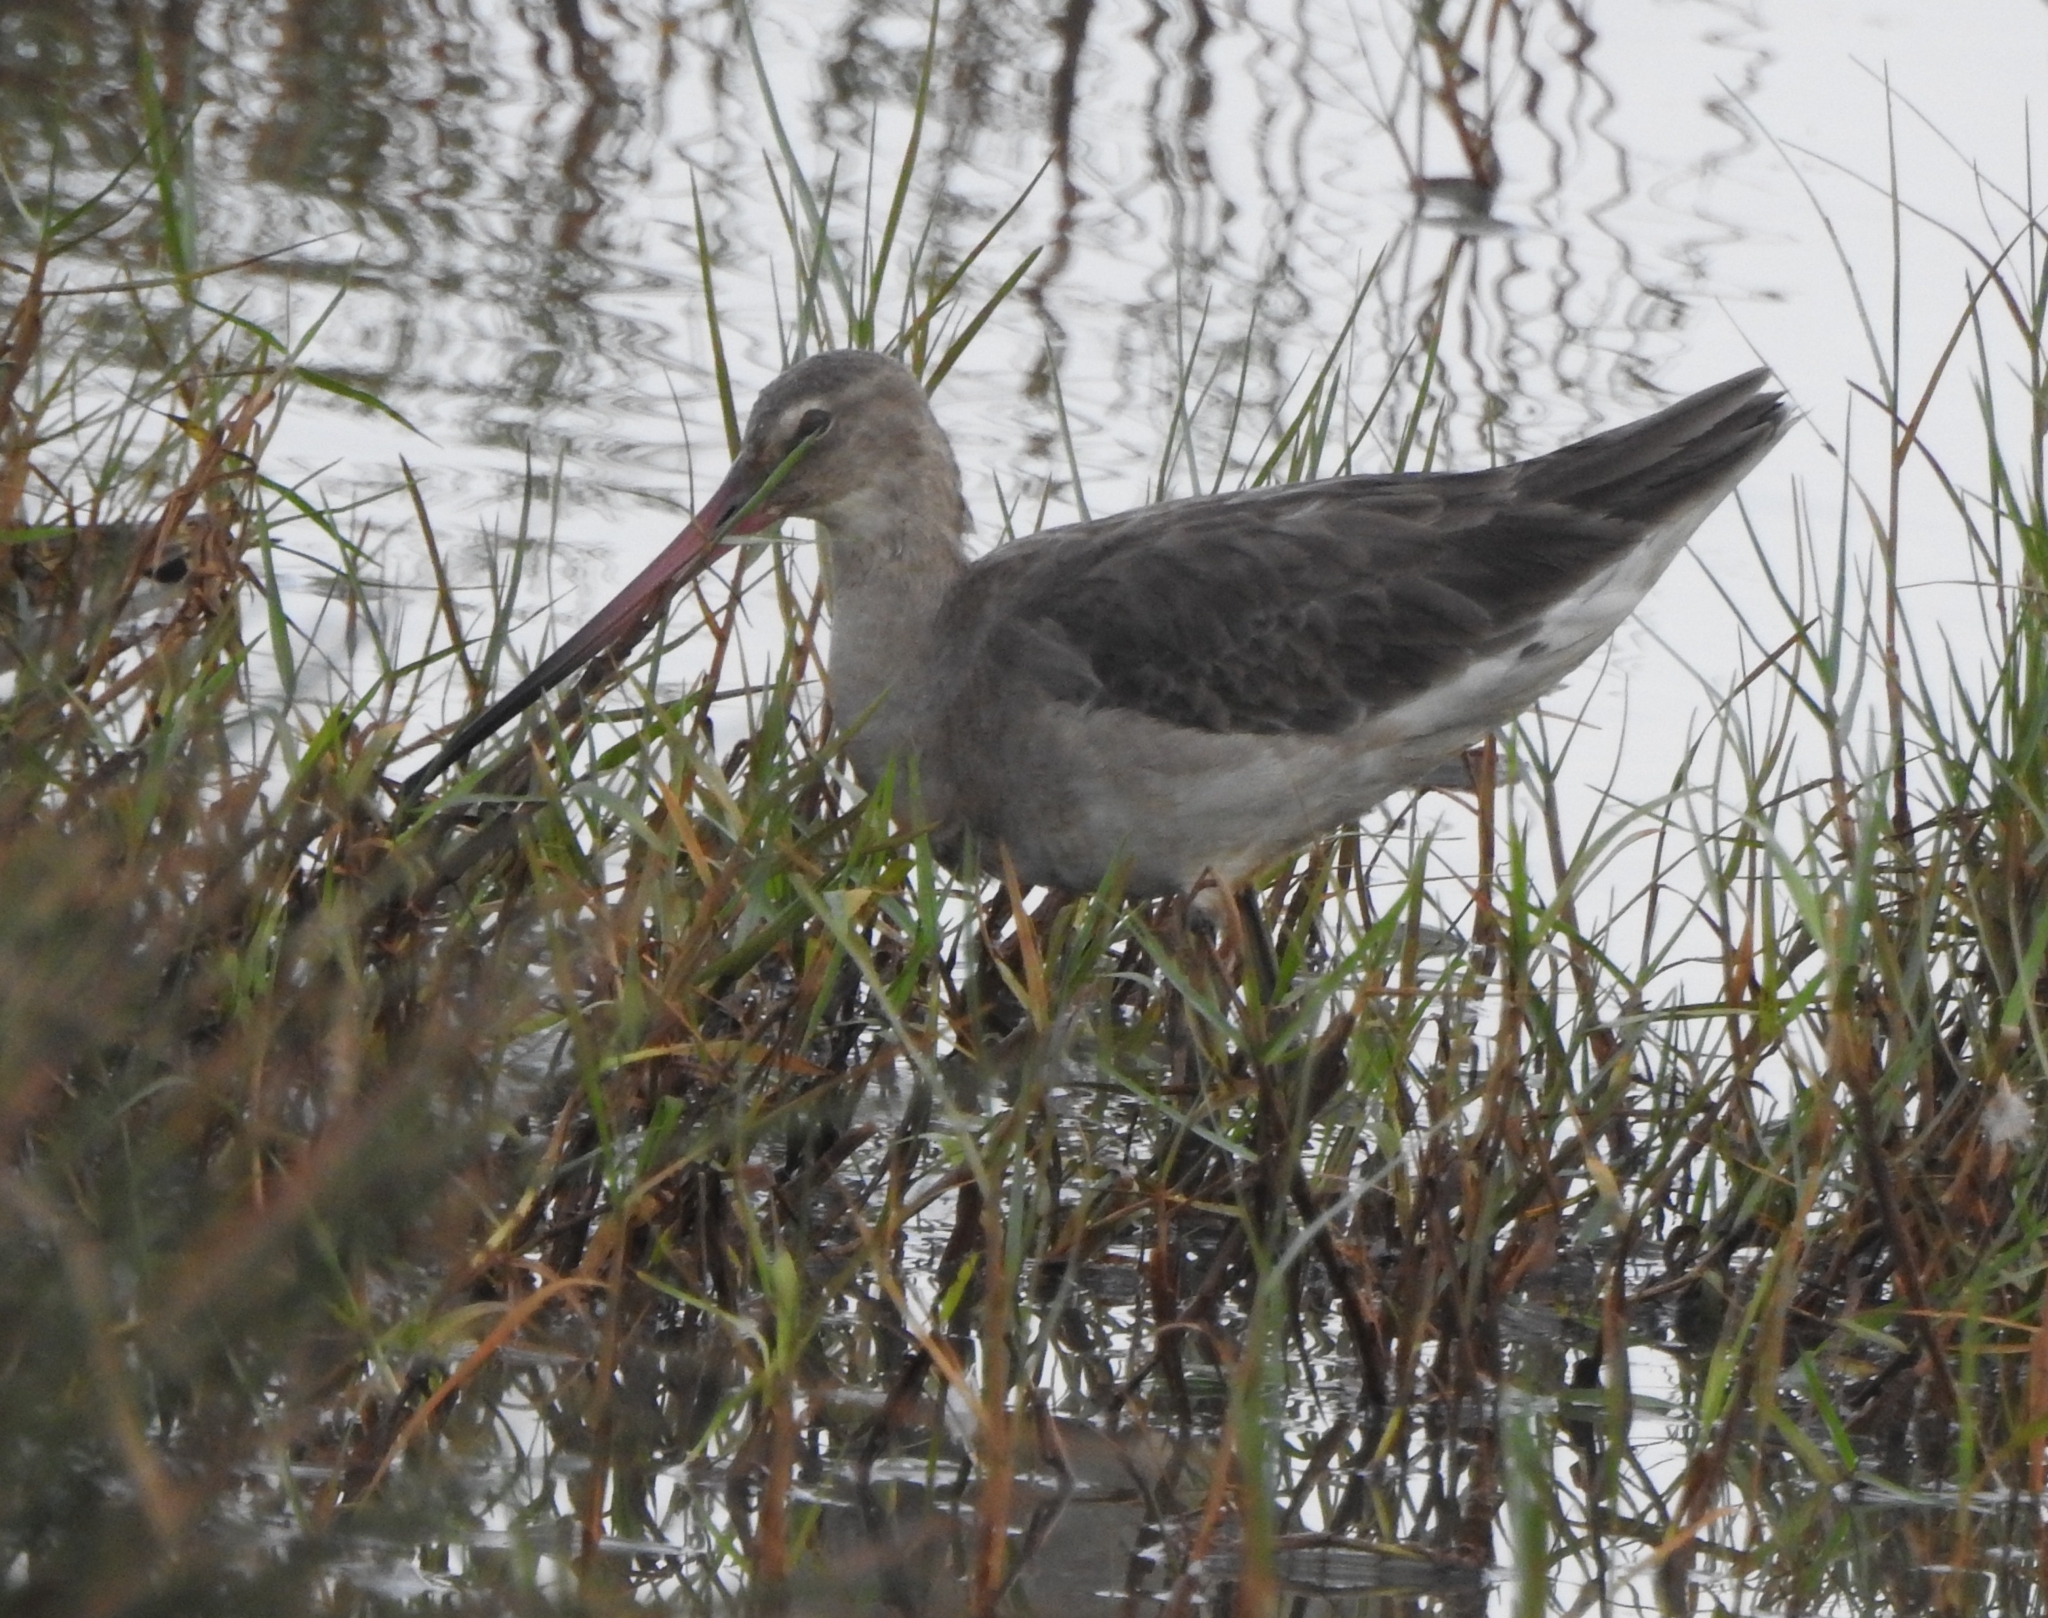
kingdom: Animalia
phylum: Chordata
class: Aves
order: Charadriiformes
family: Scolopacidae
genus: Limosa
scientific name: Limosa limosa
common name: Black-tailed godwit
